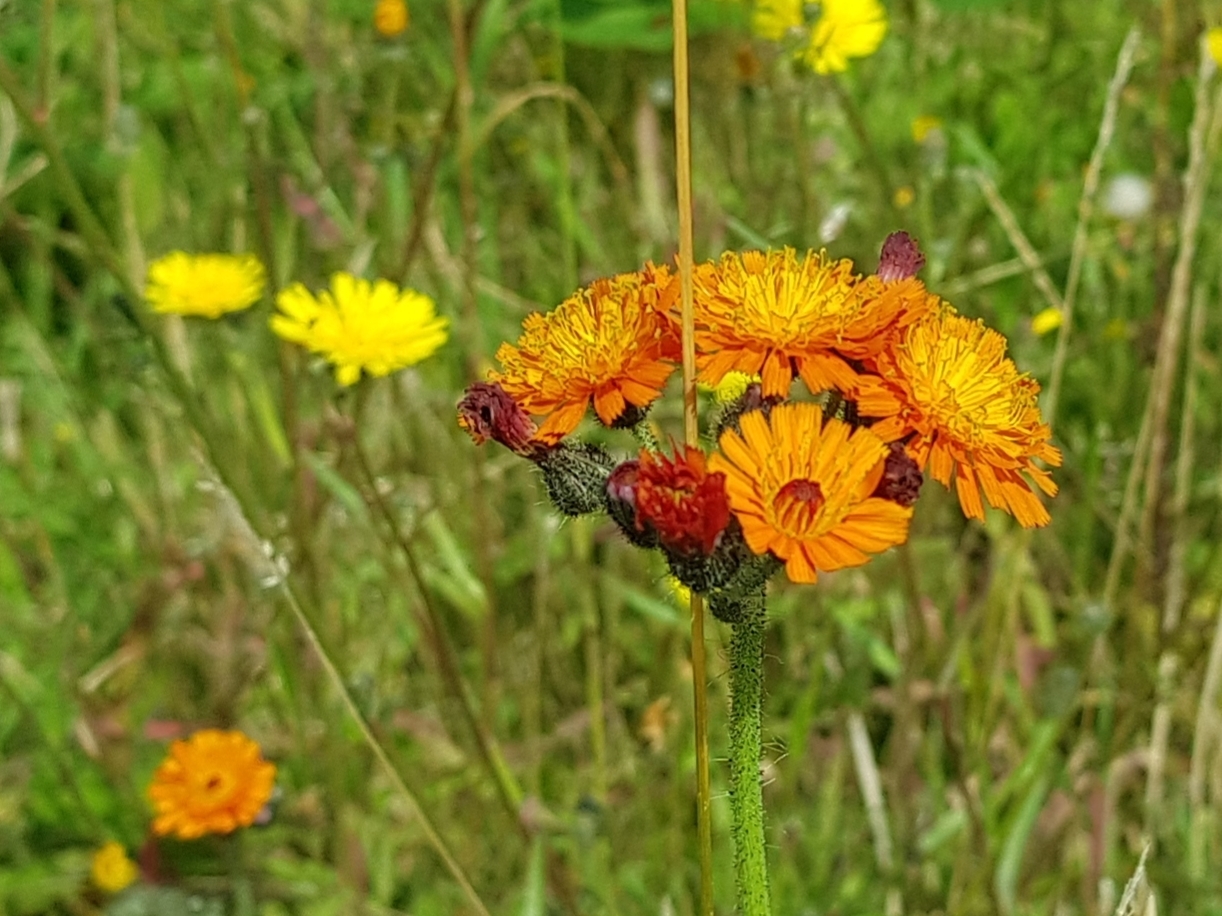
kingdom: Plantae
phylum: Tracheophyta
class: Magnoliopsida
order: Asterales
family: Asteraceae
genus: Pilosella
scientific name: Pilosella aurantiaca
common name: Fox-and-cubs
